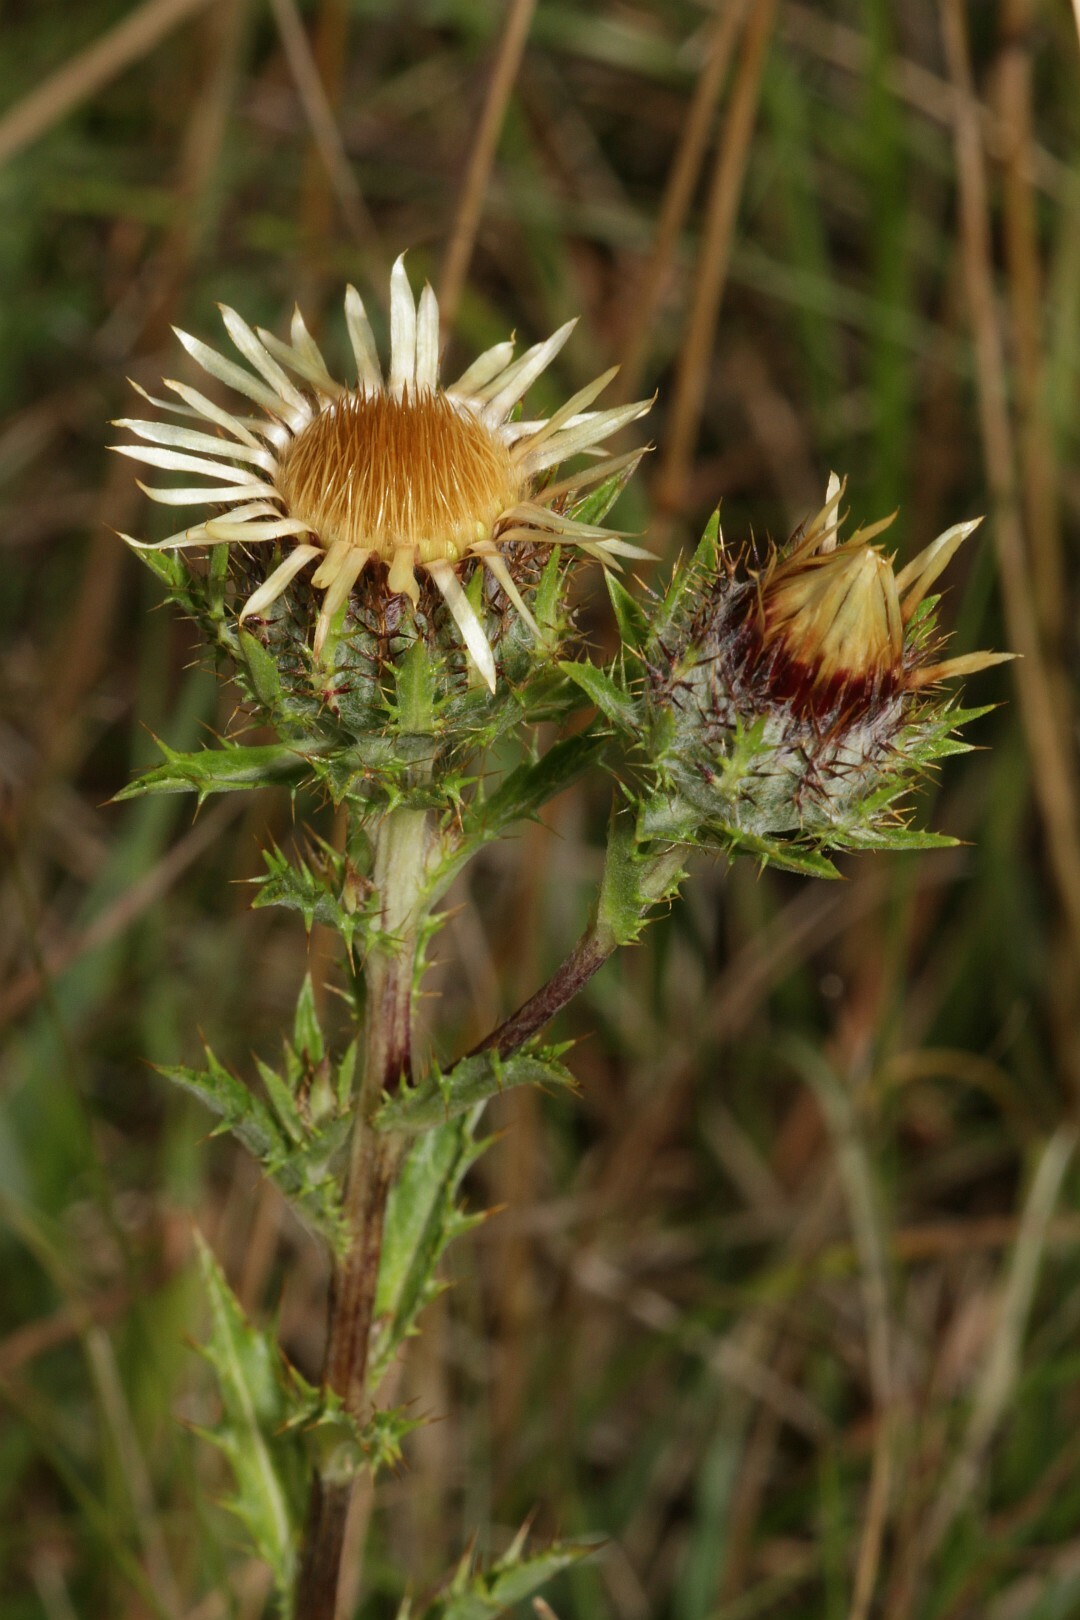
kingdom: Plantae
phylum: Tracheophyta
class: Magnoliopsida
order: Asterales
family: Asteraceae
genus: Carlina
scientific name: Carlina vulgaris
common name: Carline thistle
